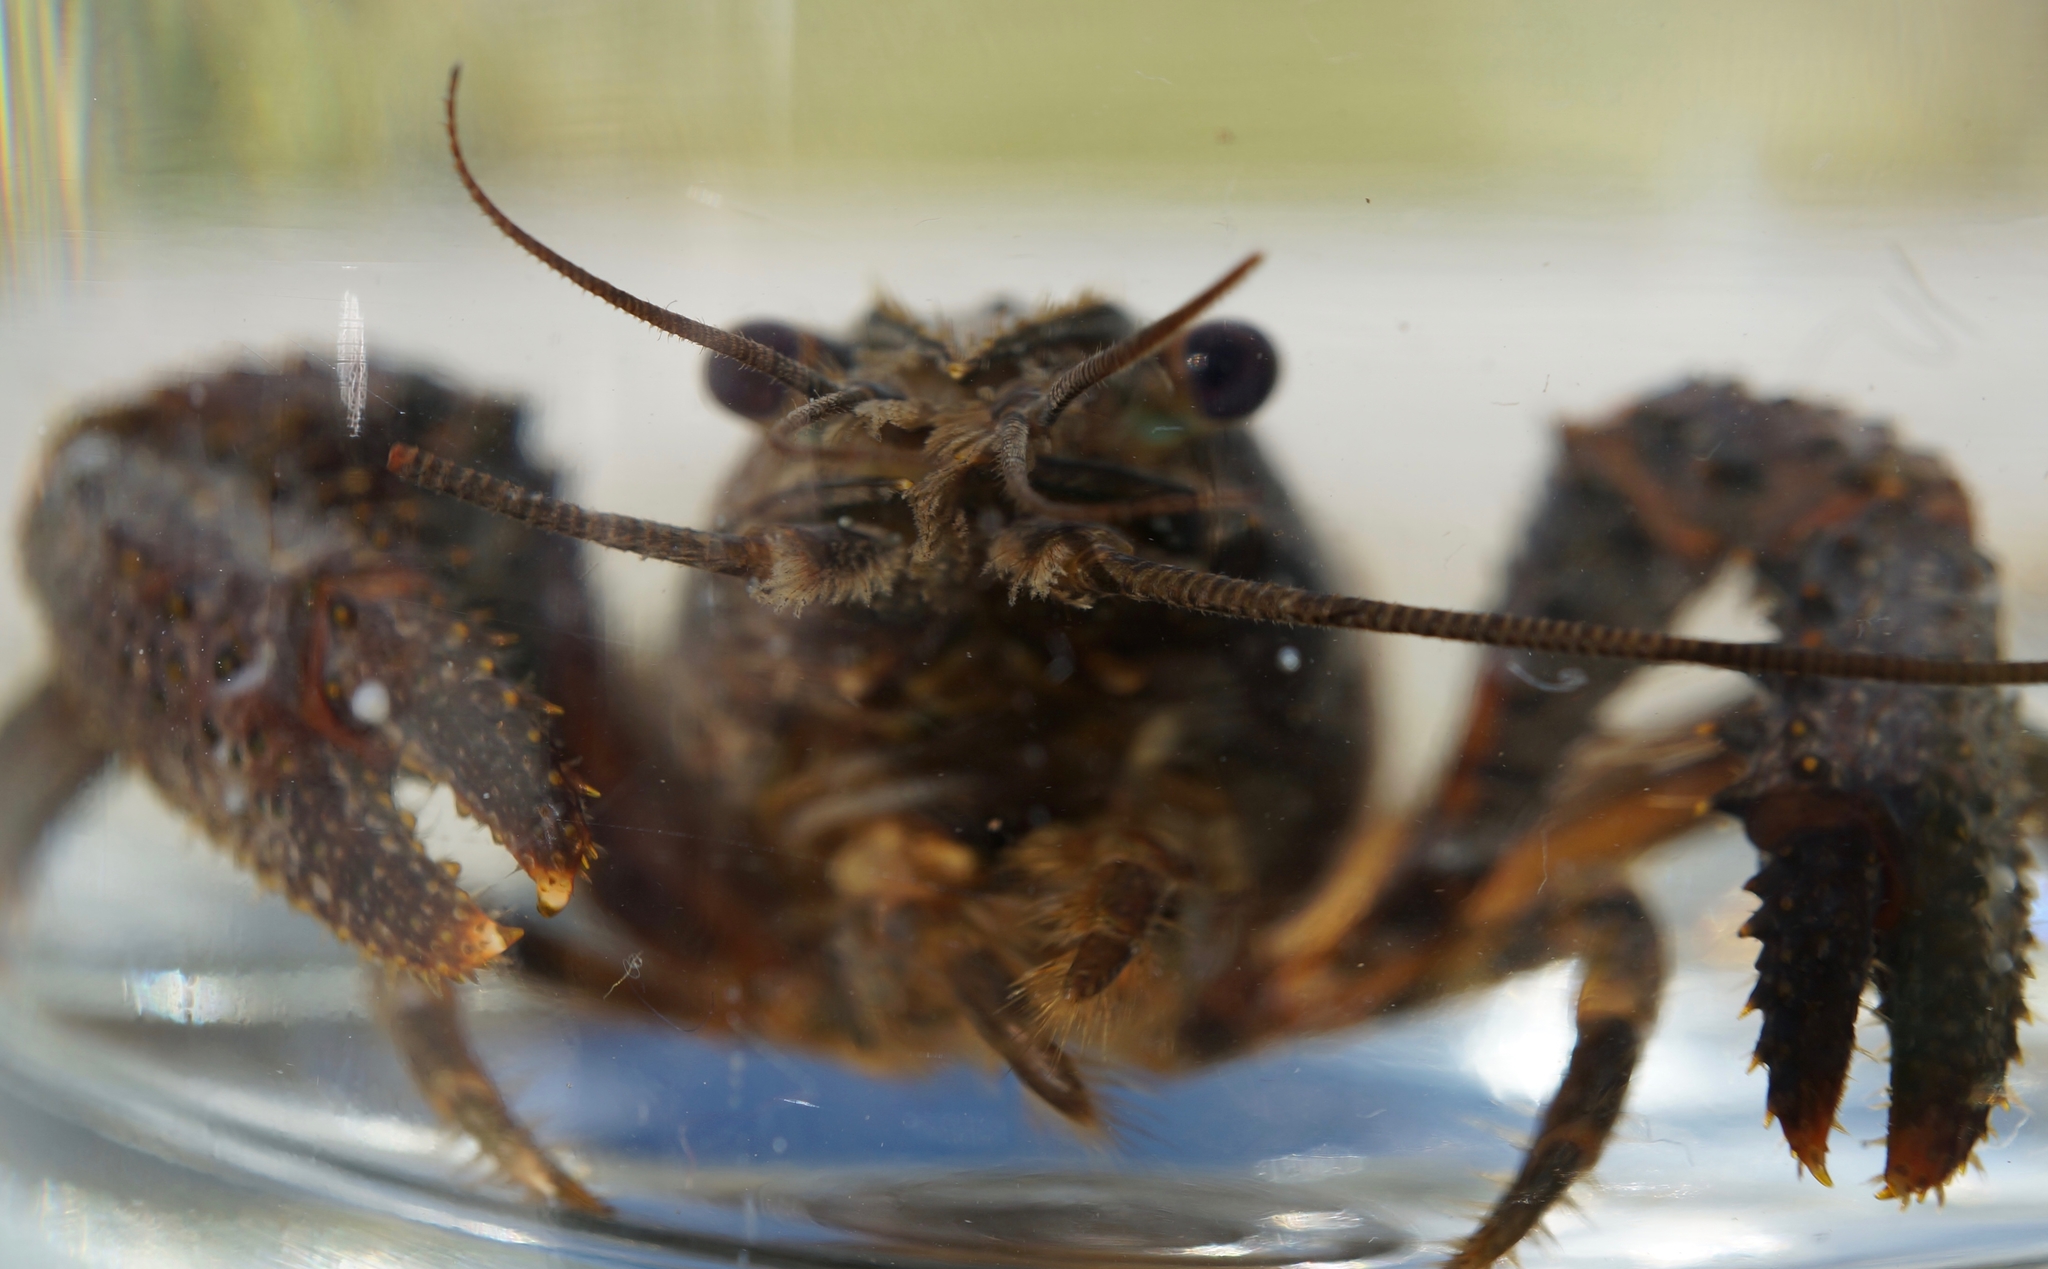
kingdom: Animalia
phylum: Arthropoda
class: Malacostraca
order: Decapoda
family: Parastacidae
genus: Paranephrops
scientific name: Paranephrops planifrons
